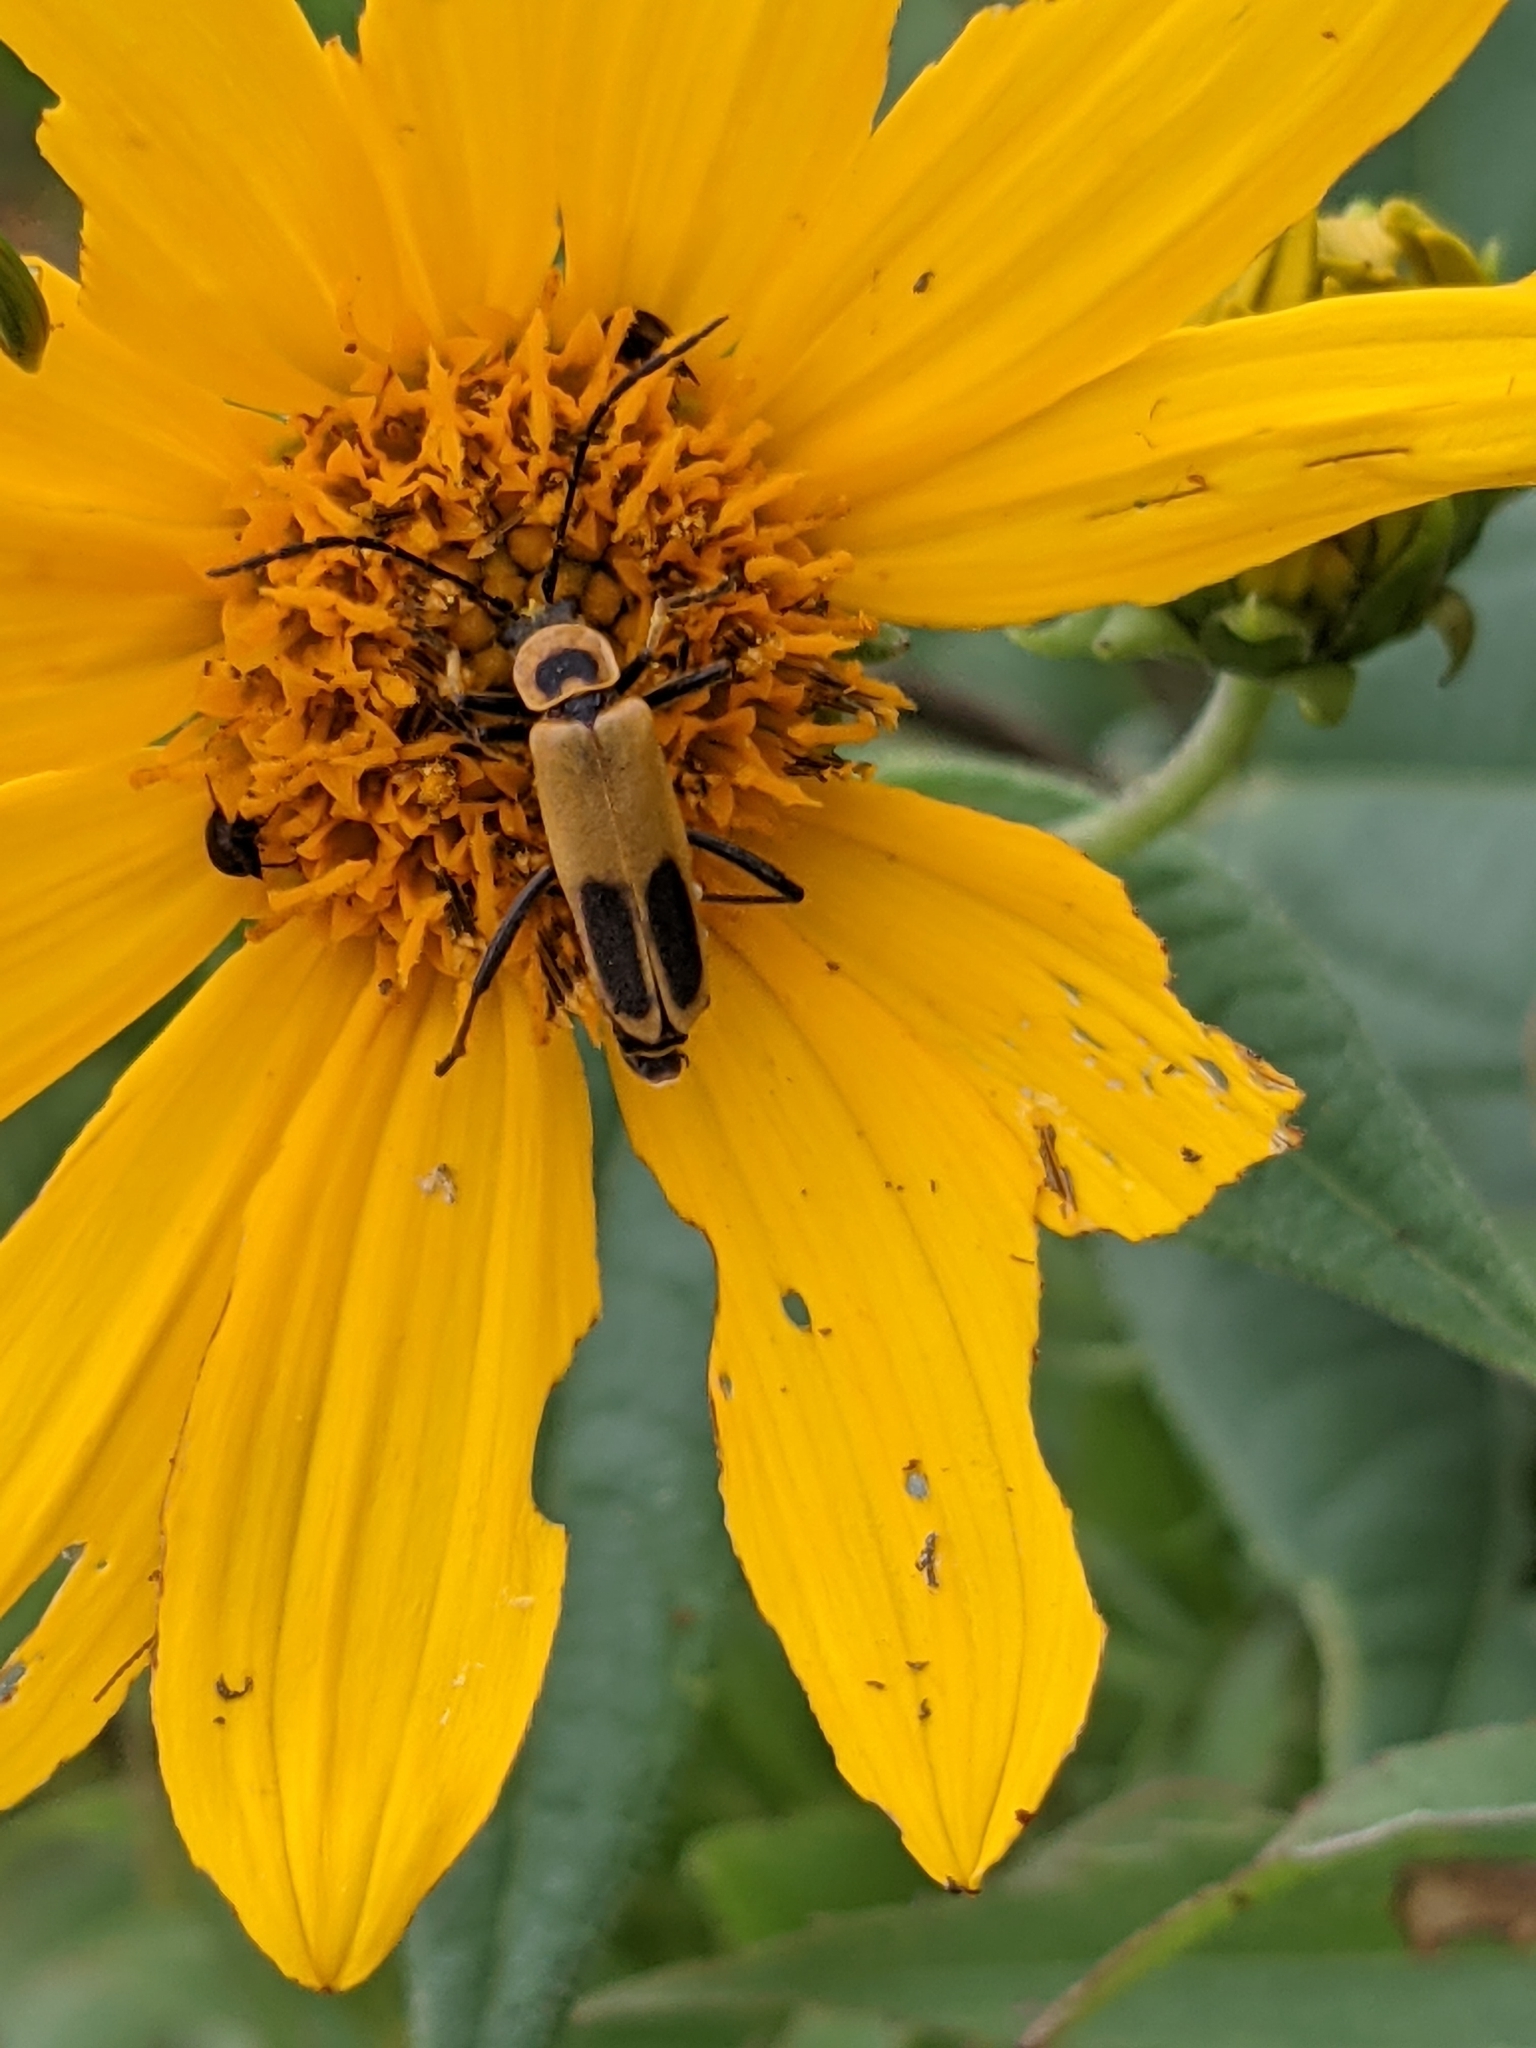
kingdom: Animalia
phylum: Arthropoda
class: Insecta
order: Coleoptera
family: Cantharidae
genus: Chauliognathus
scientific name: Chauliognathus pensylvanicus
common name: Goldenrod soldier beetle
